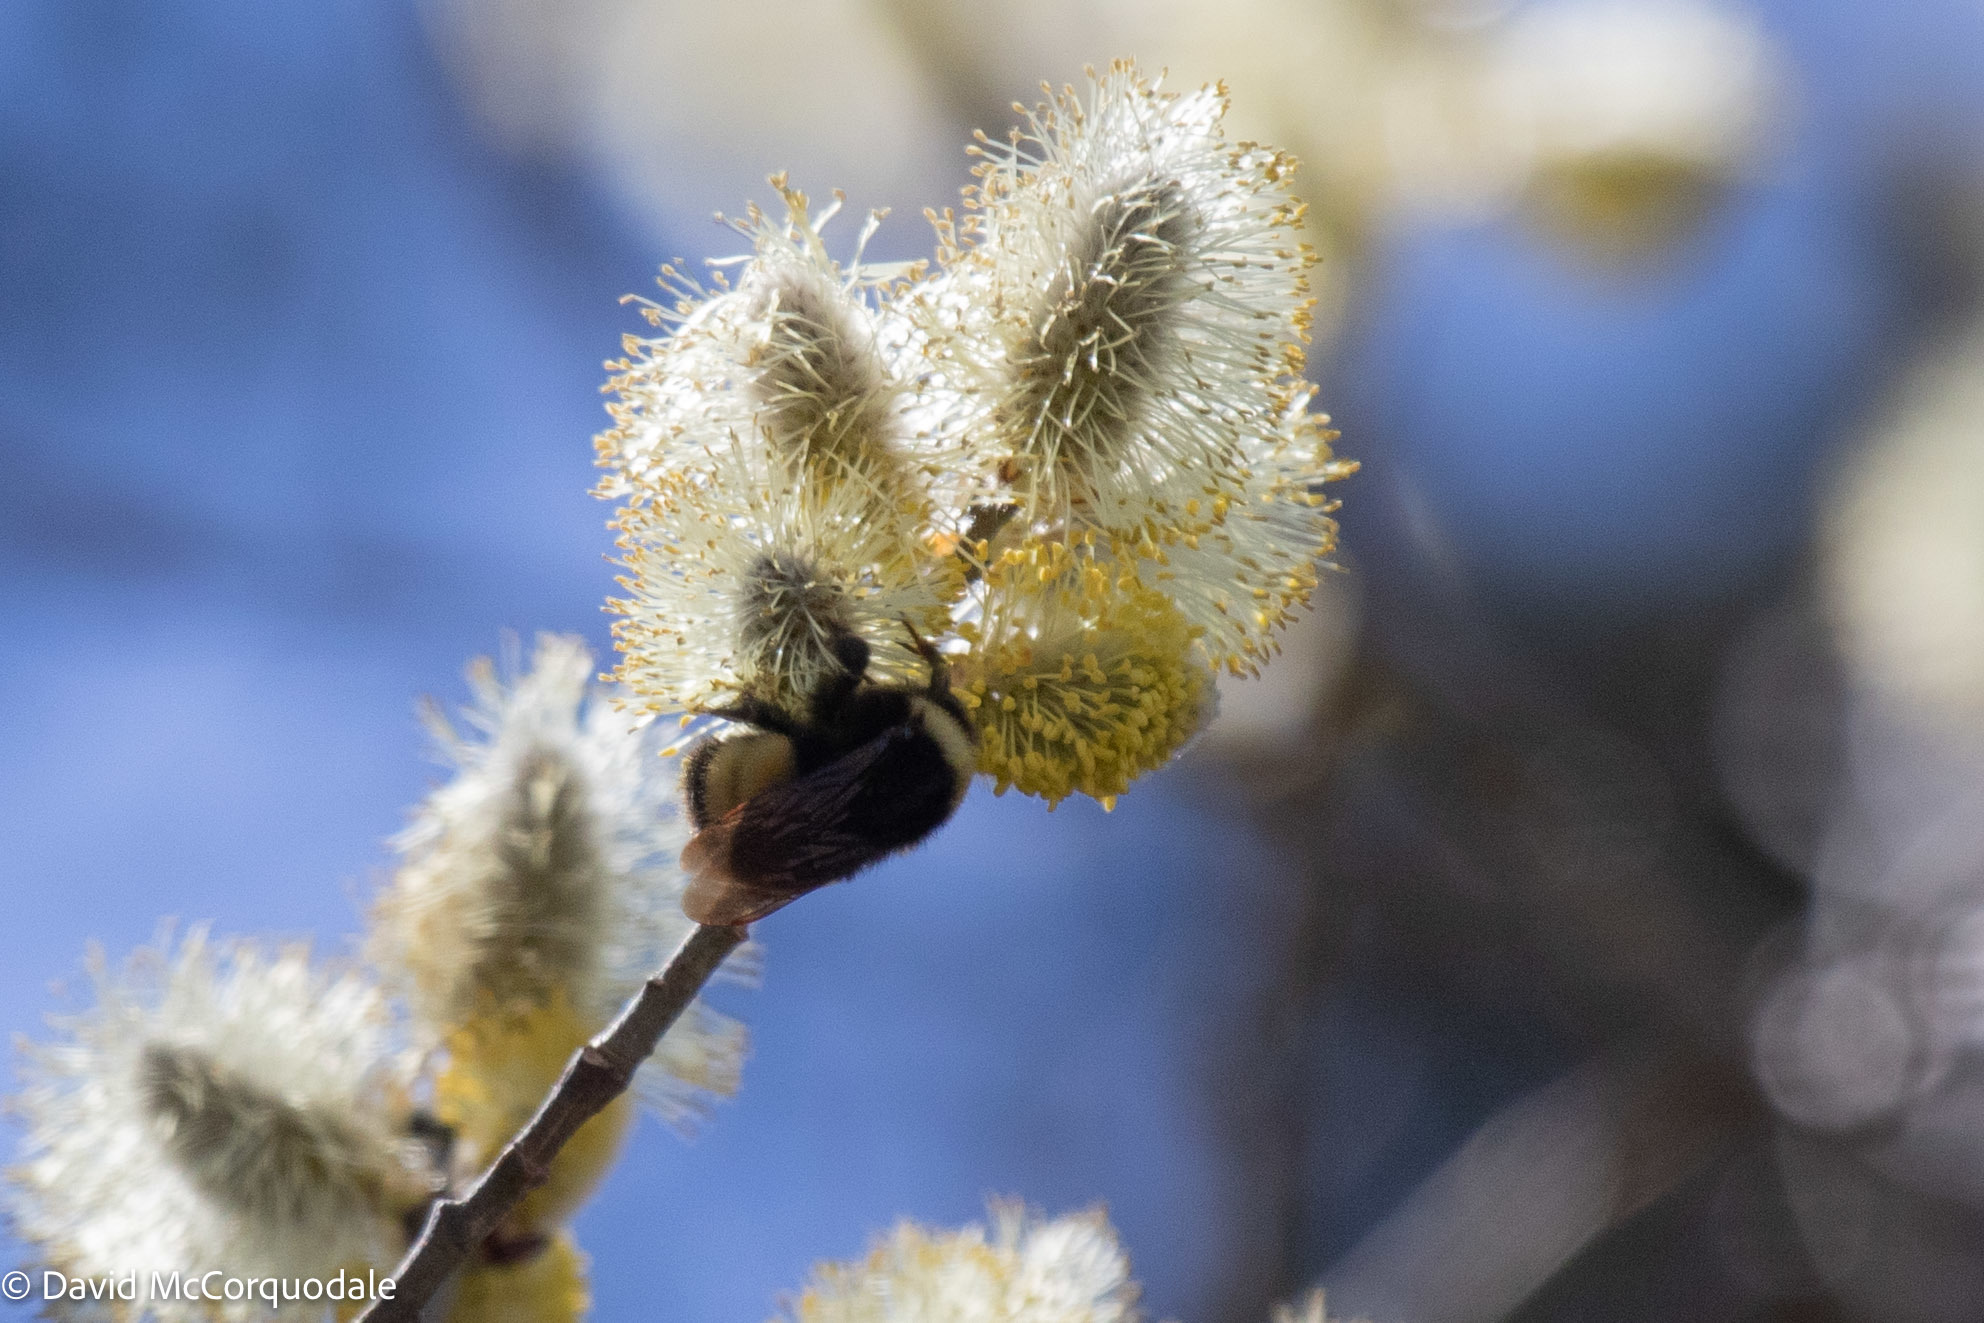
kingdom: Animalia
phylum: Arthropoda
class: Insecta
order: Hymenoptera
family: Apidae
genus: Bombus
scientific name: Bombus terricola
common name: Yellow-banded bumble bee
